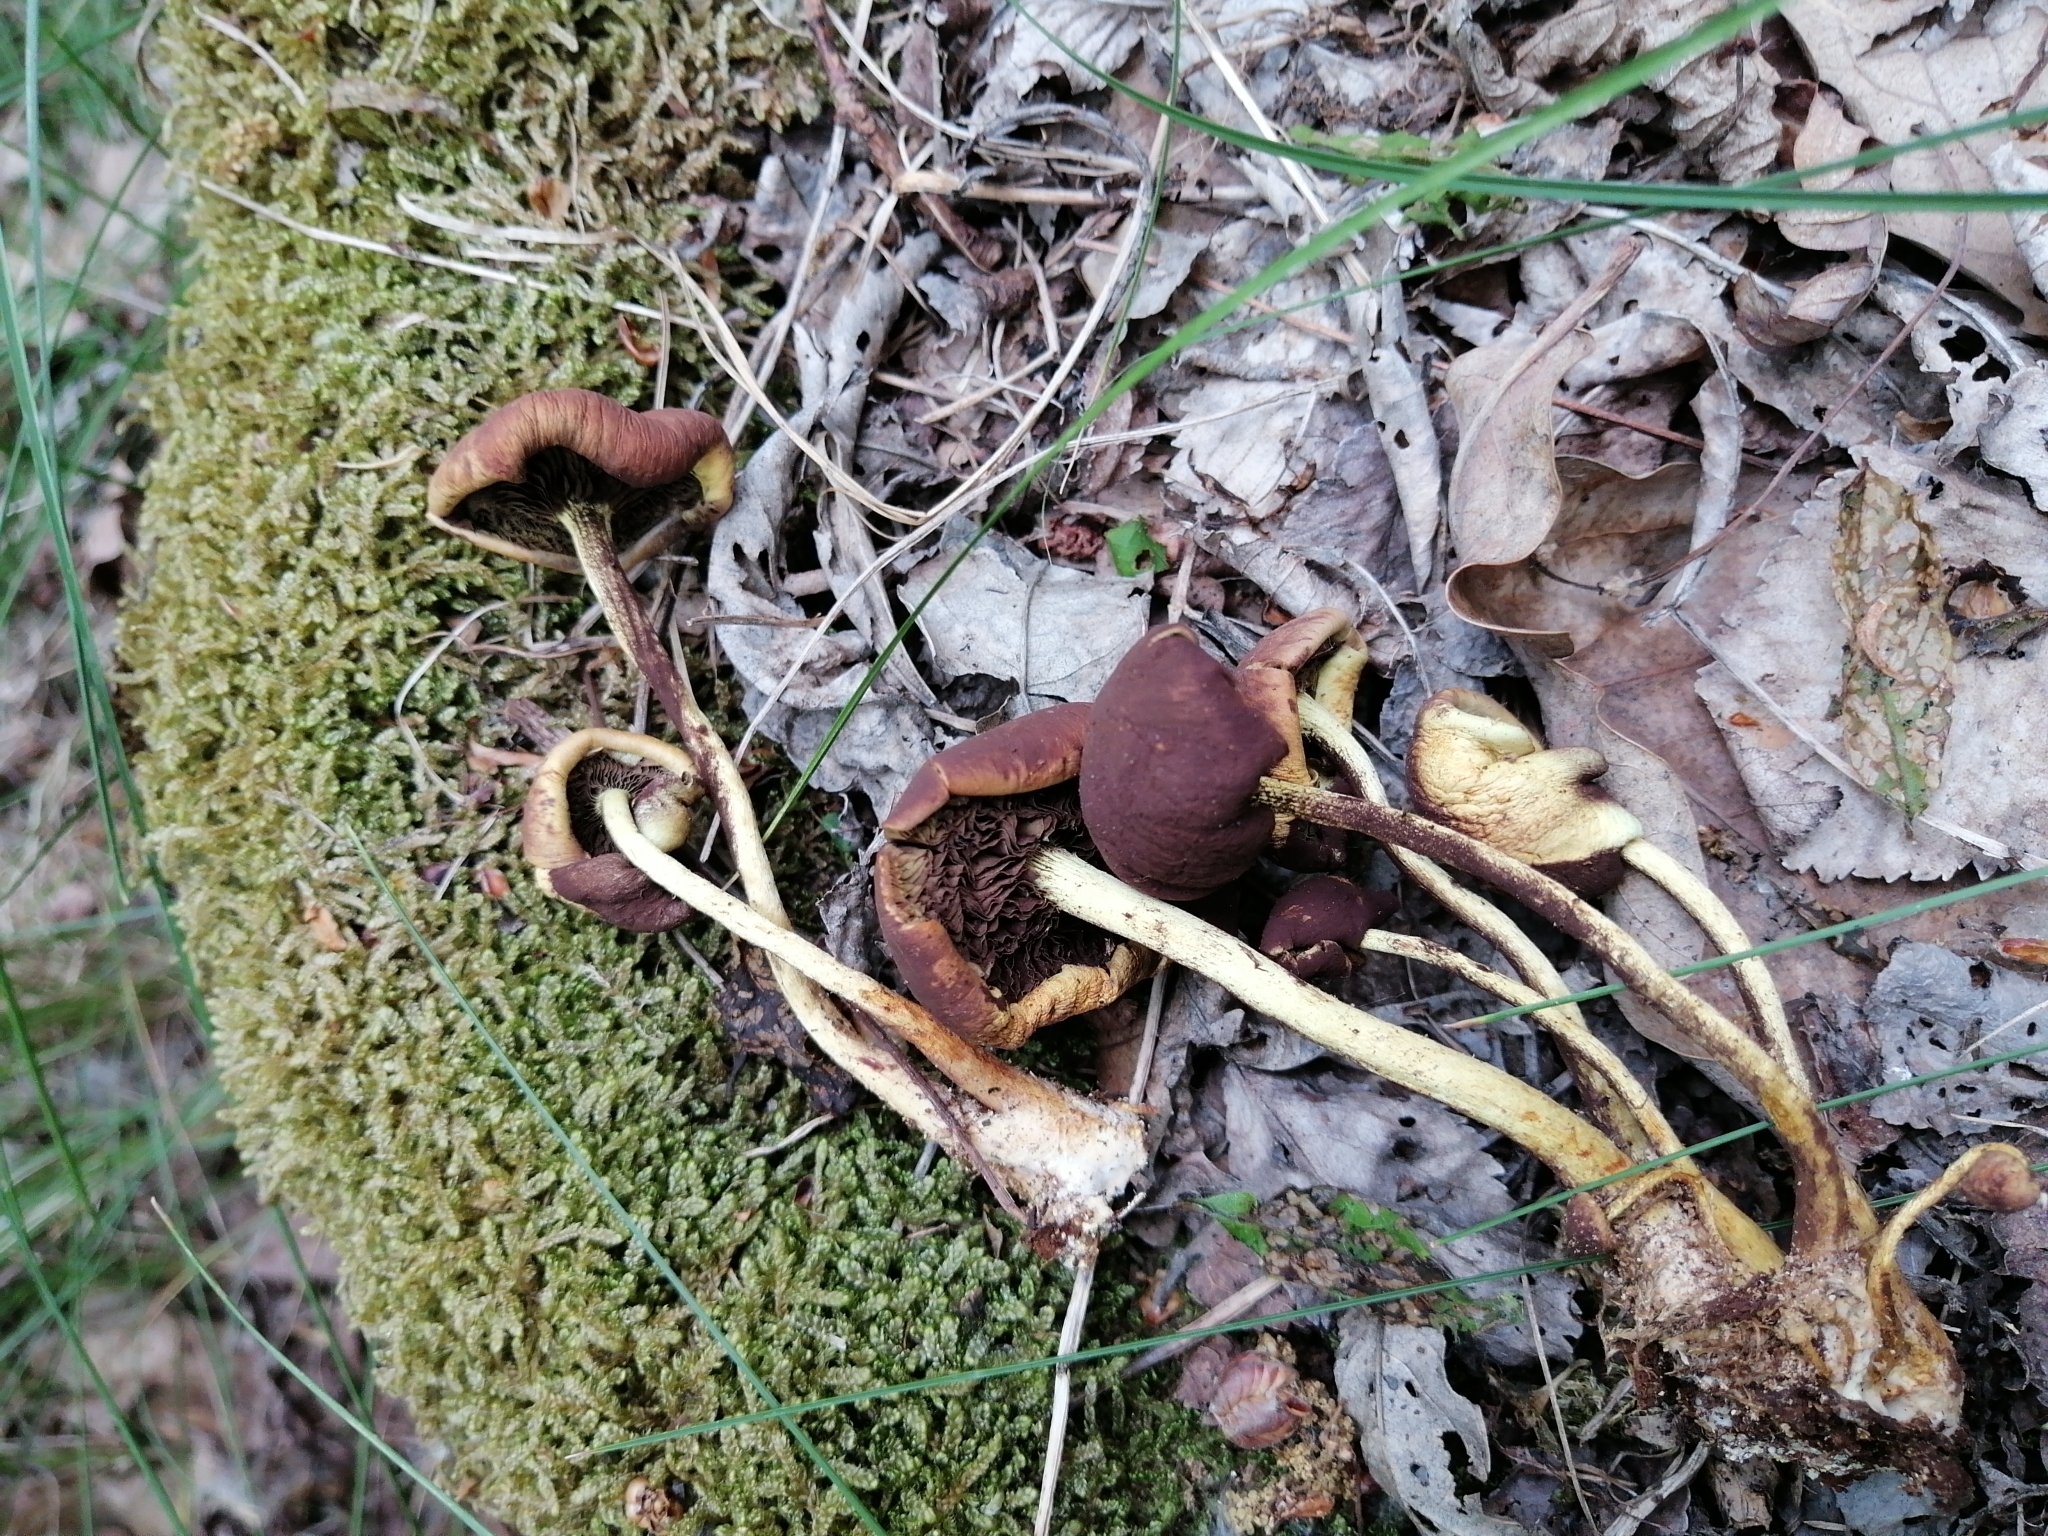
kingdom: Fungi
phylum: Basidiomycota
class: Agaricomycetes
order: Agaricales
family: Strophariaceae
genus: Hypholoma
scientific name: Hypholoma fasciculare
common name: Sulphur tuft
